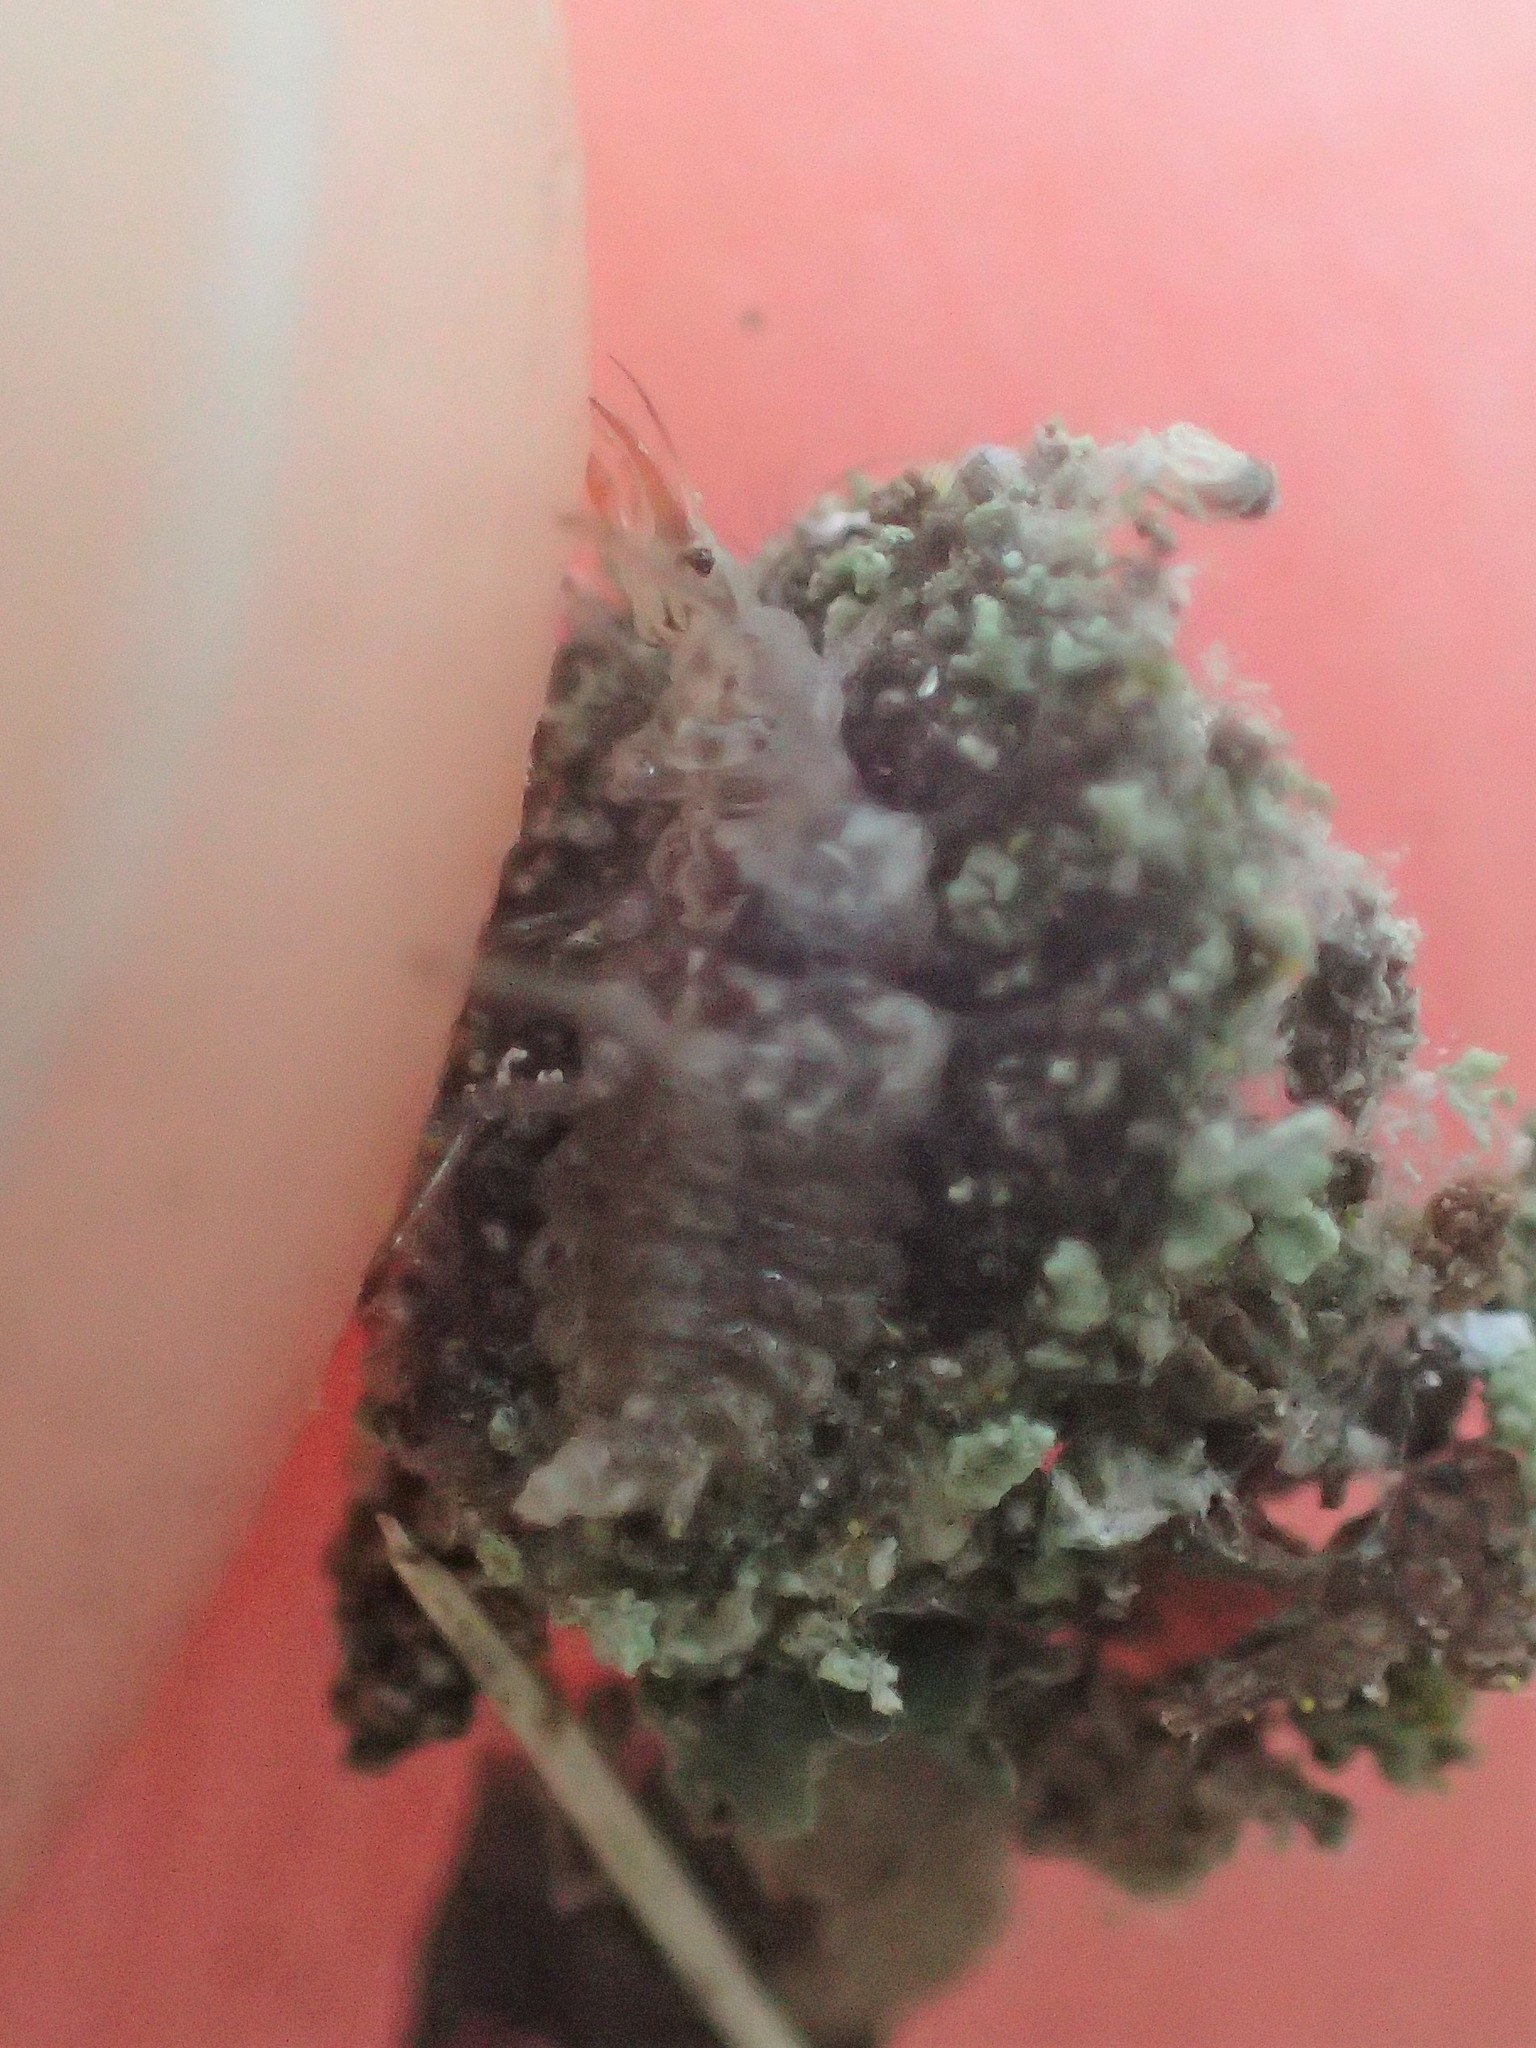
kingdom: Animalia
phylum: Arthropoda
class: Insecta
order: Neuroptera
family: Chrysopidae
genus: Leucochrysa
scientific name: Leucochrysa pavida
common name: Lichen-carrying green lacewing
